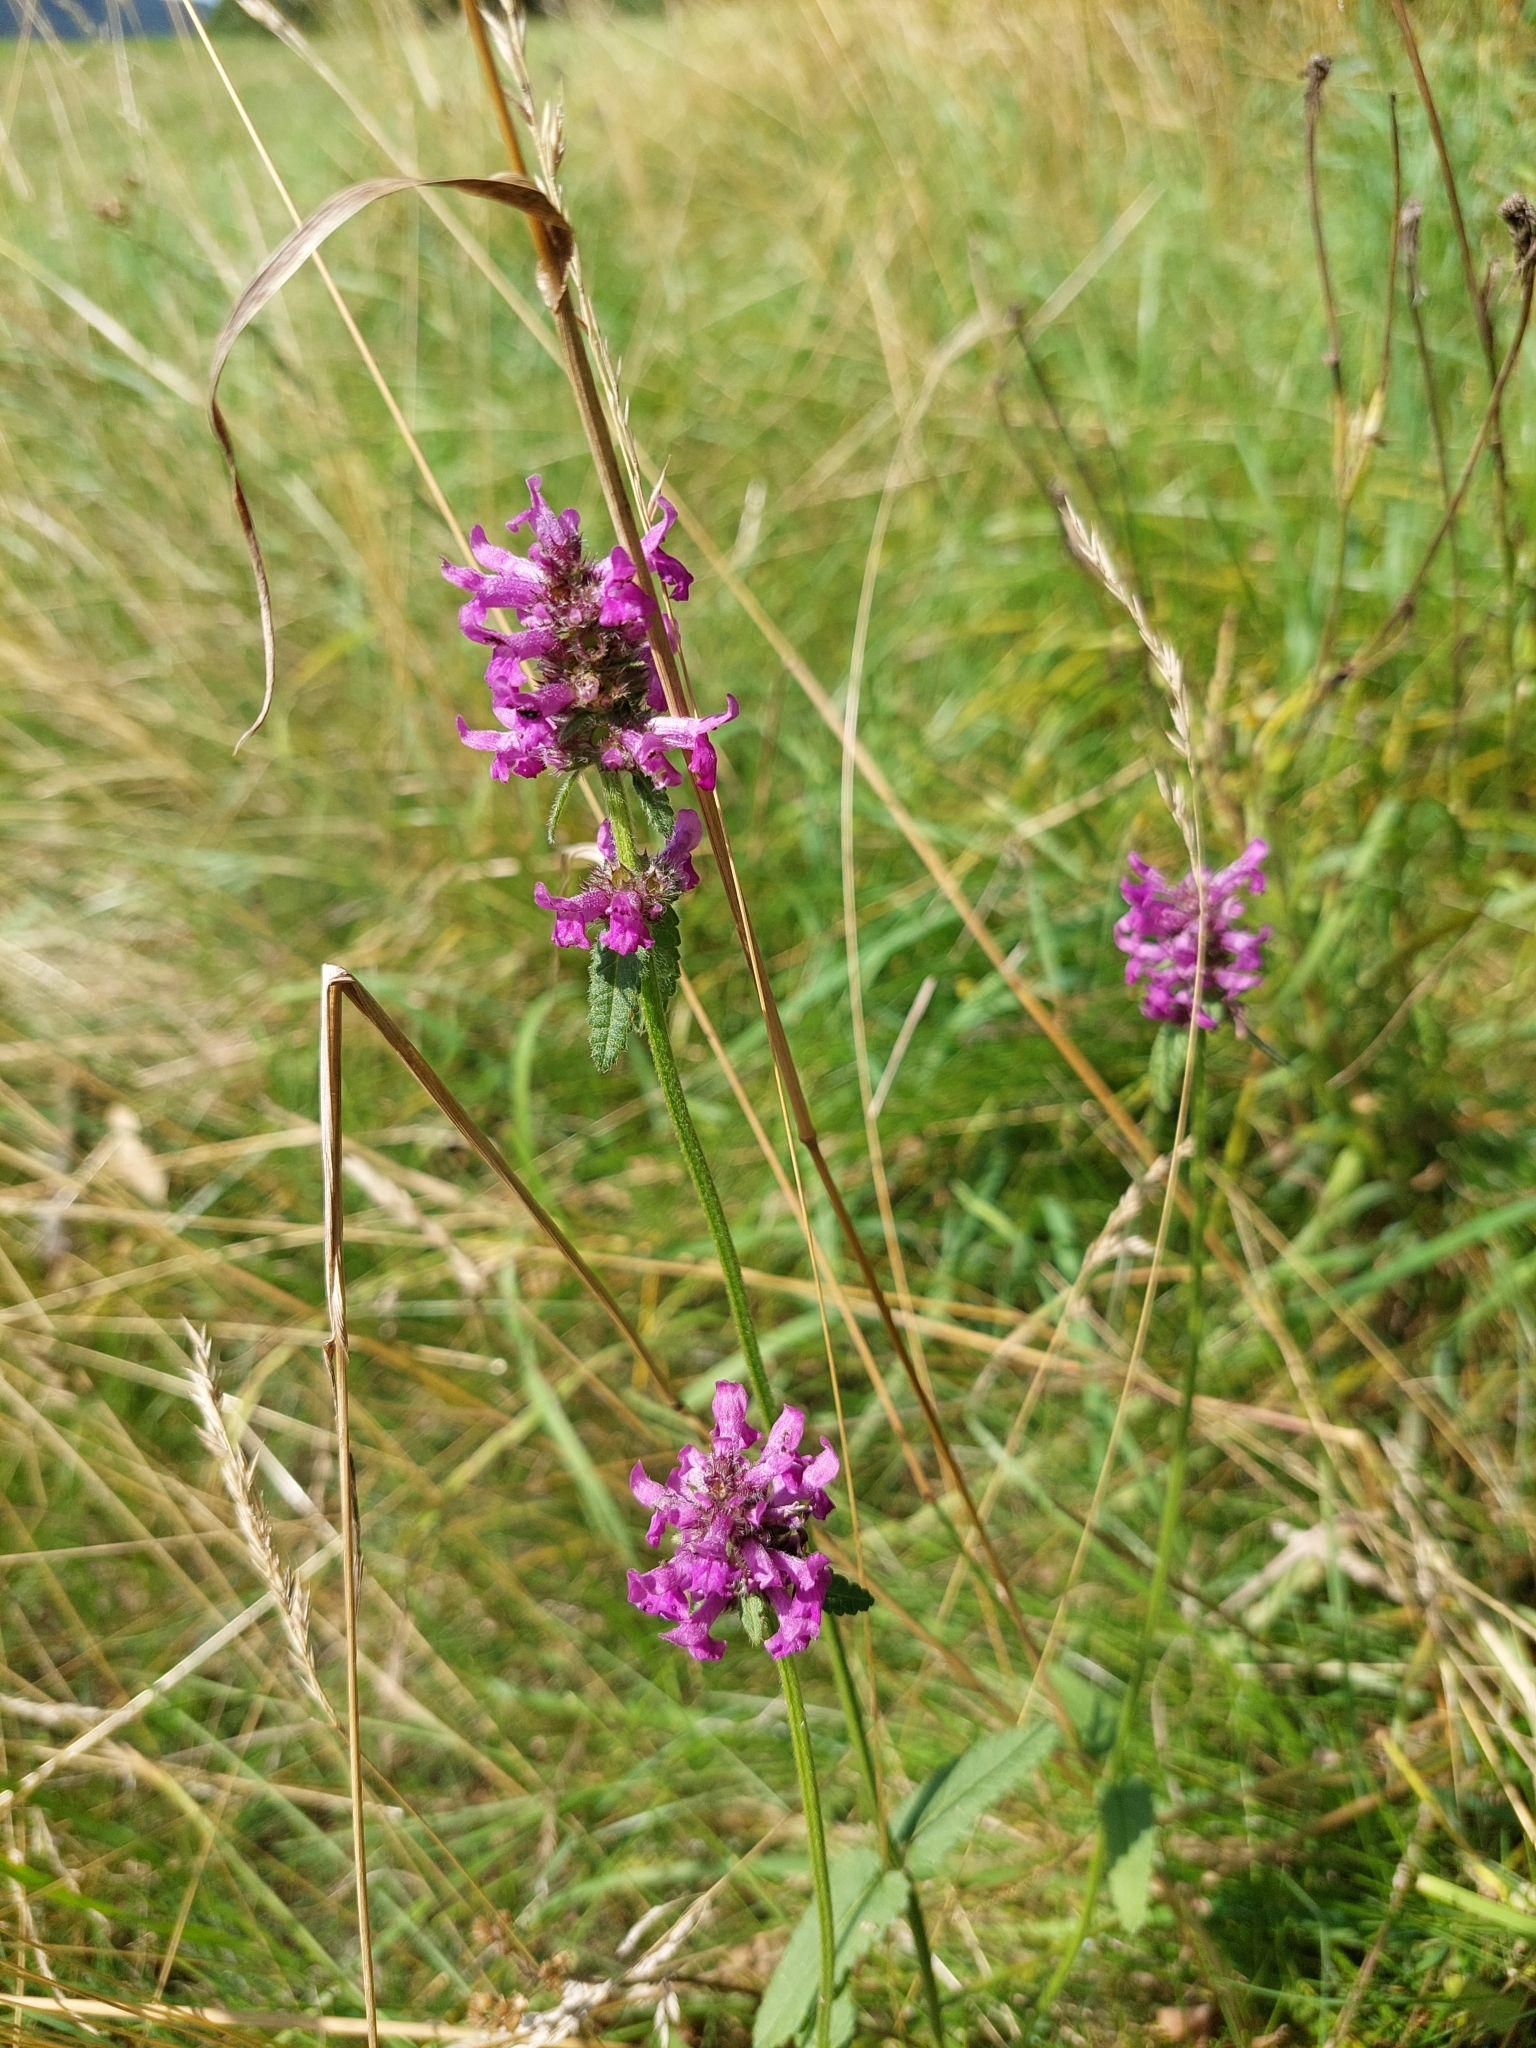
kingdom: Plantae
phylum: Tracheophyta
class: Magnoliopsida
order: Lamiales
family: Lamiaceae
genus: Betonica
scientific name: Betonica officinalis
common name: Bishop's-wort
